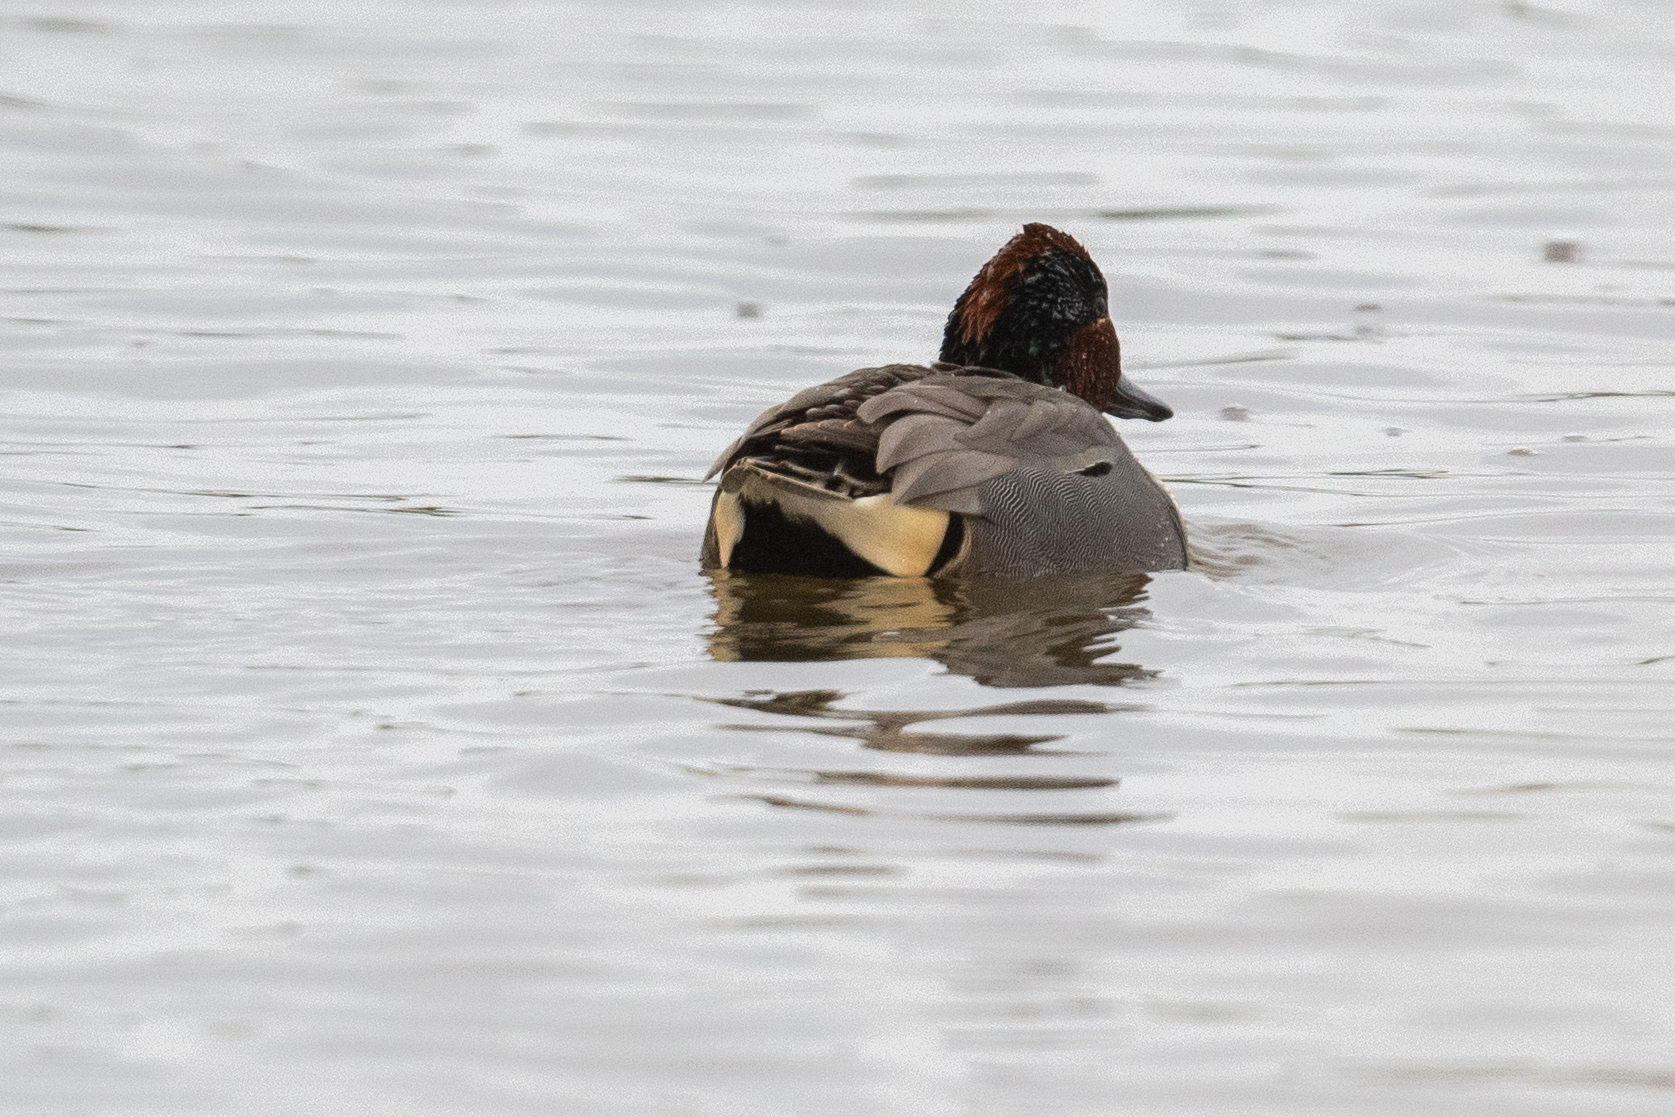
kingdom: Animalia
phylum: Chordata
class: Aves
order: Anseriformes
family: Anatidae
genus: Anas
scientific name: Anas crecca
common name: Eurasian teal
